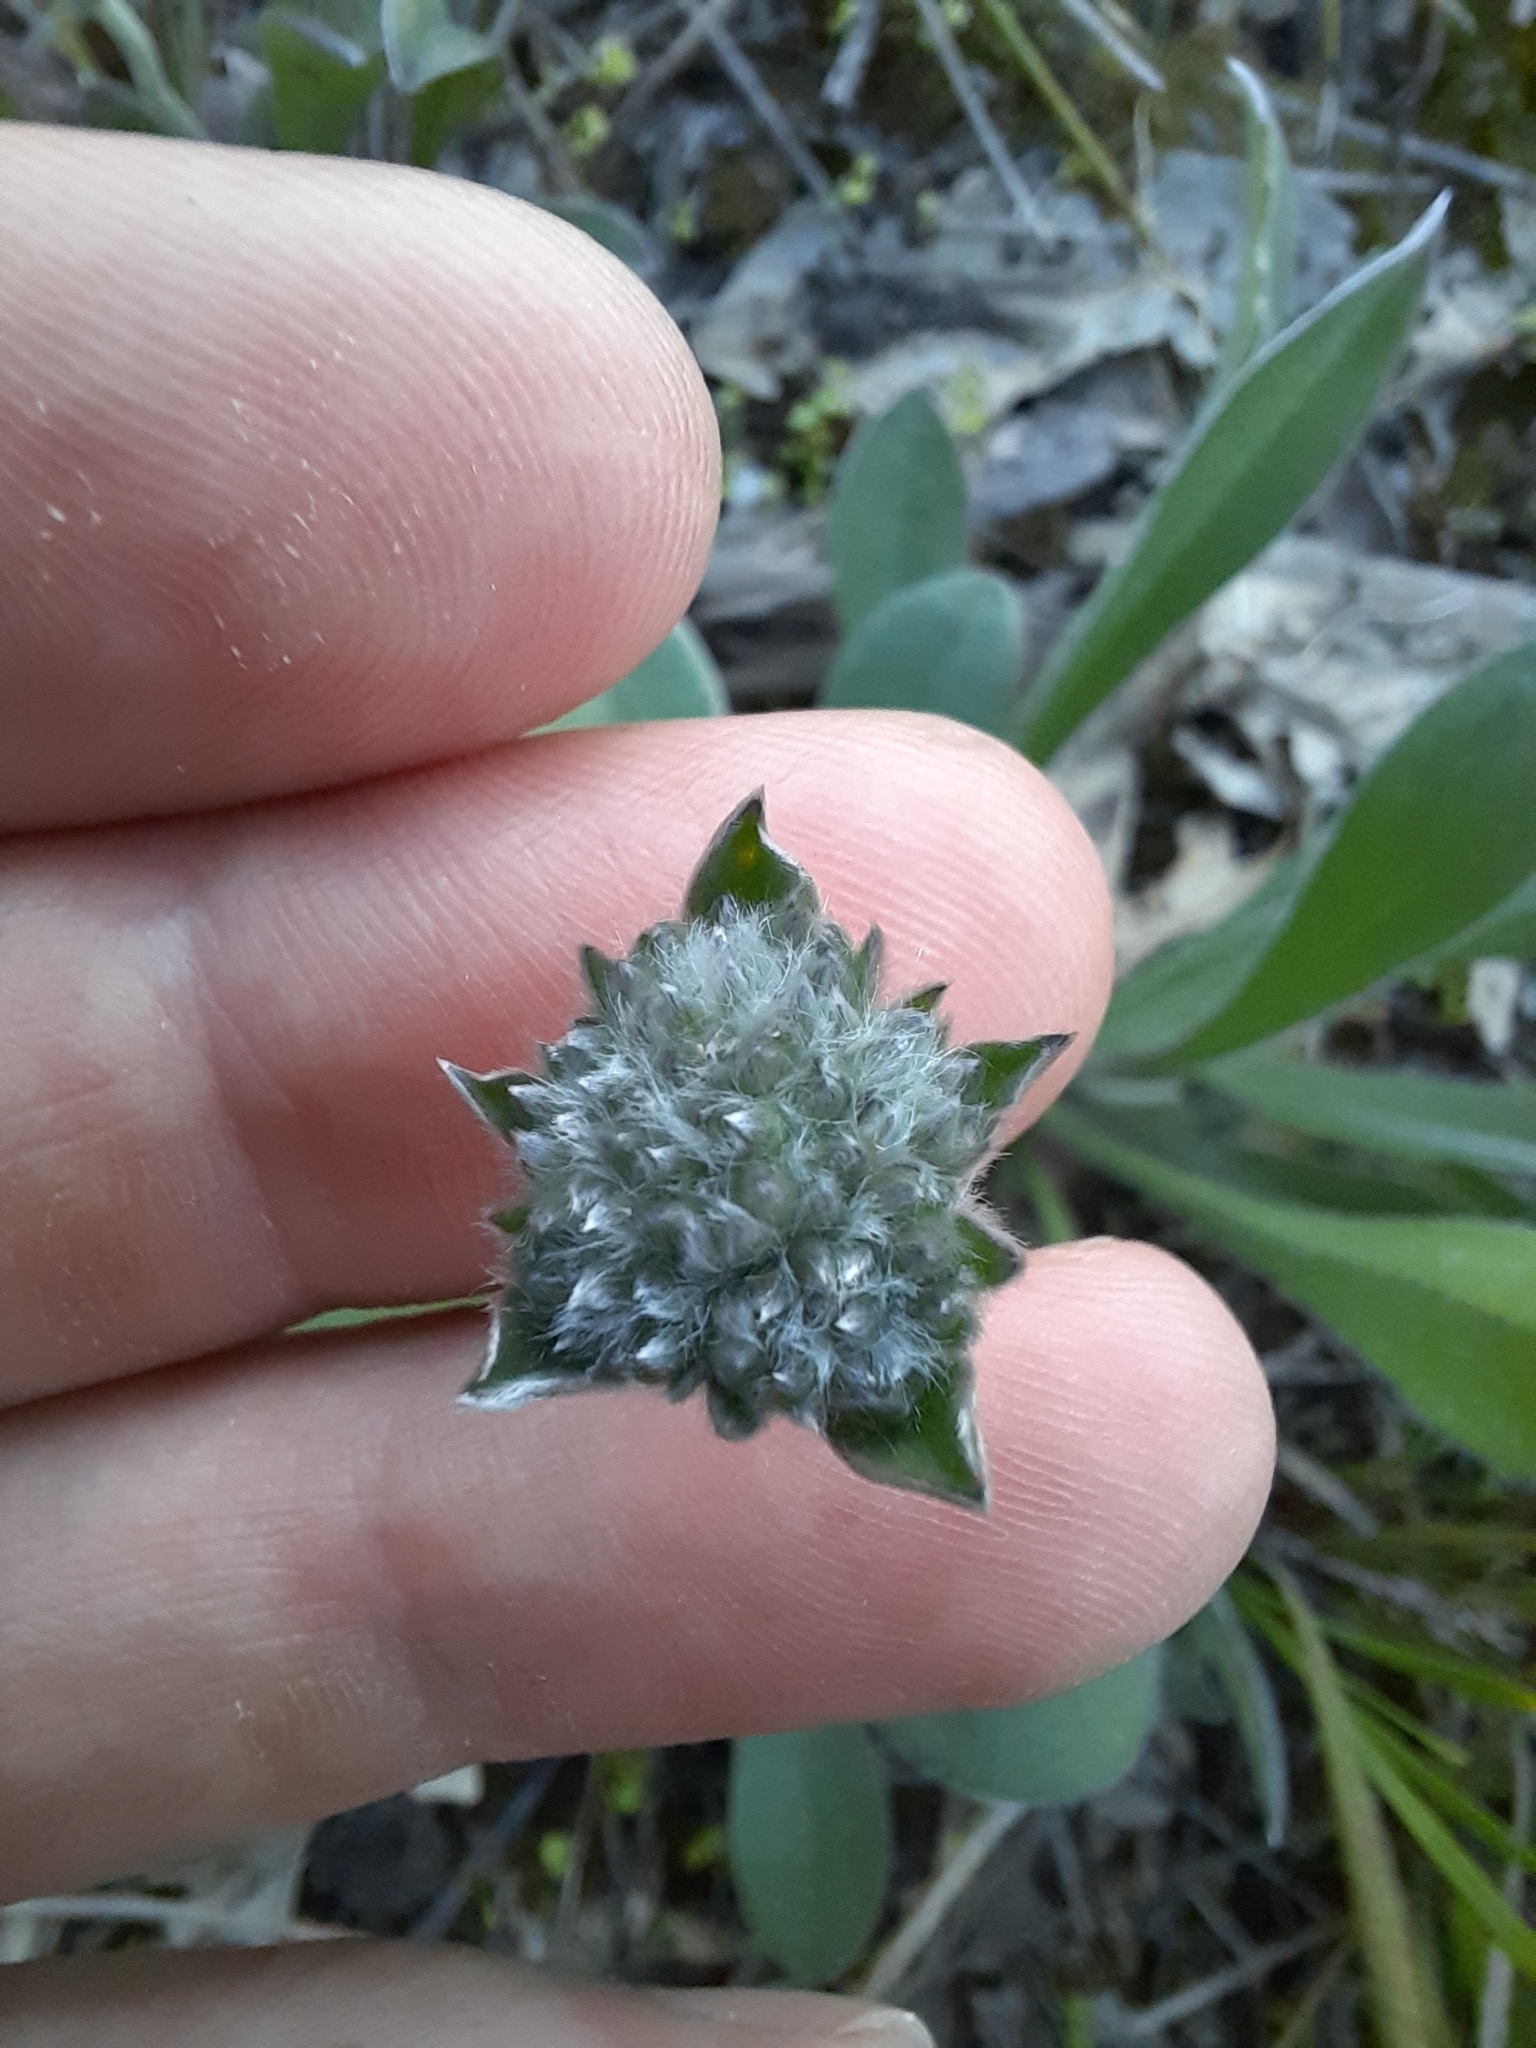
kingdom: Plantae
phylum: Tracheophyta
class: Magnoliopsida
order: Asterales
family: Goodeniaceae
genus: Brunonia
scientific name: Brunonia australis
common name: Blue pincushion
